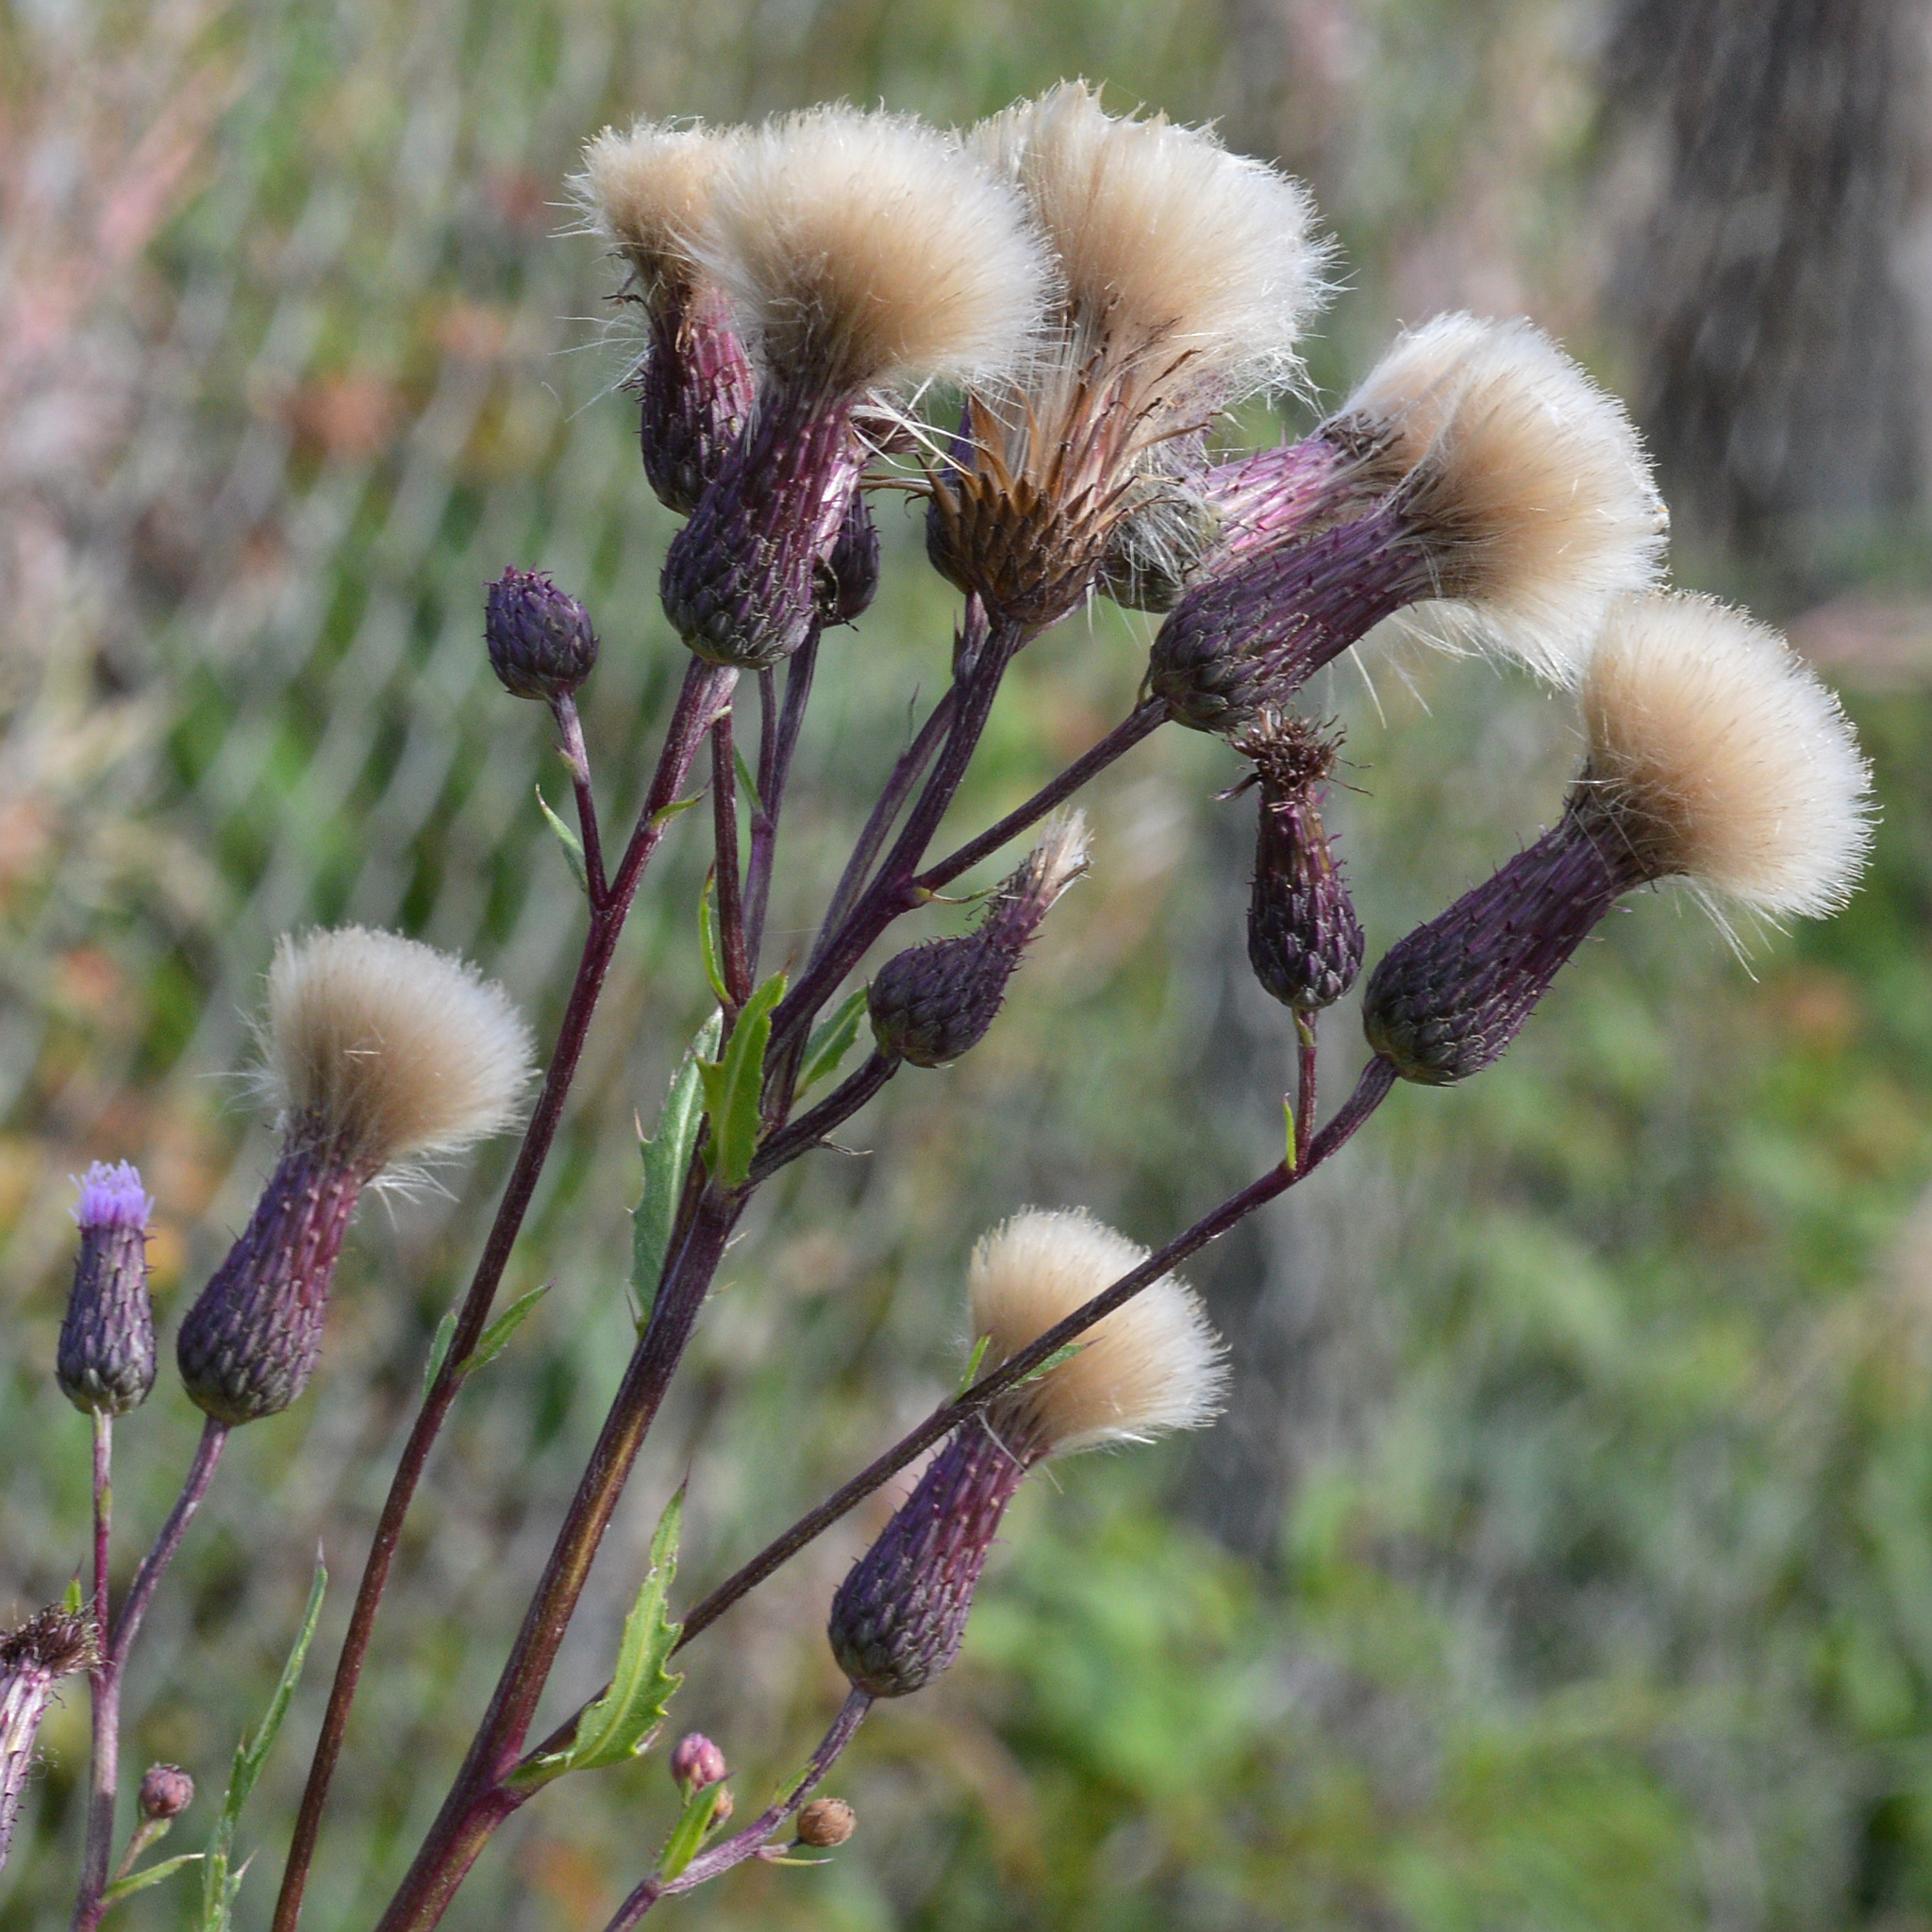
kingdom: Plantae
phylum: Tracheophyta
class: Magnoliopsida
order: Asterales
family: Asteraceae
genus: Cirsium
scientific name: Cirsium arvense
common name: Creeping thistle
